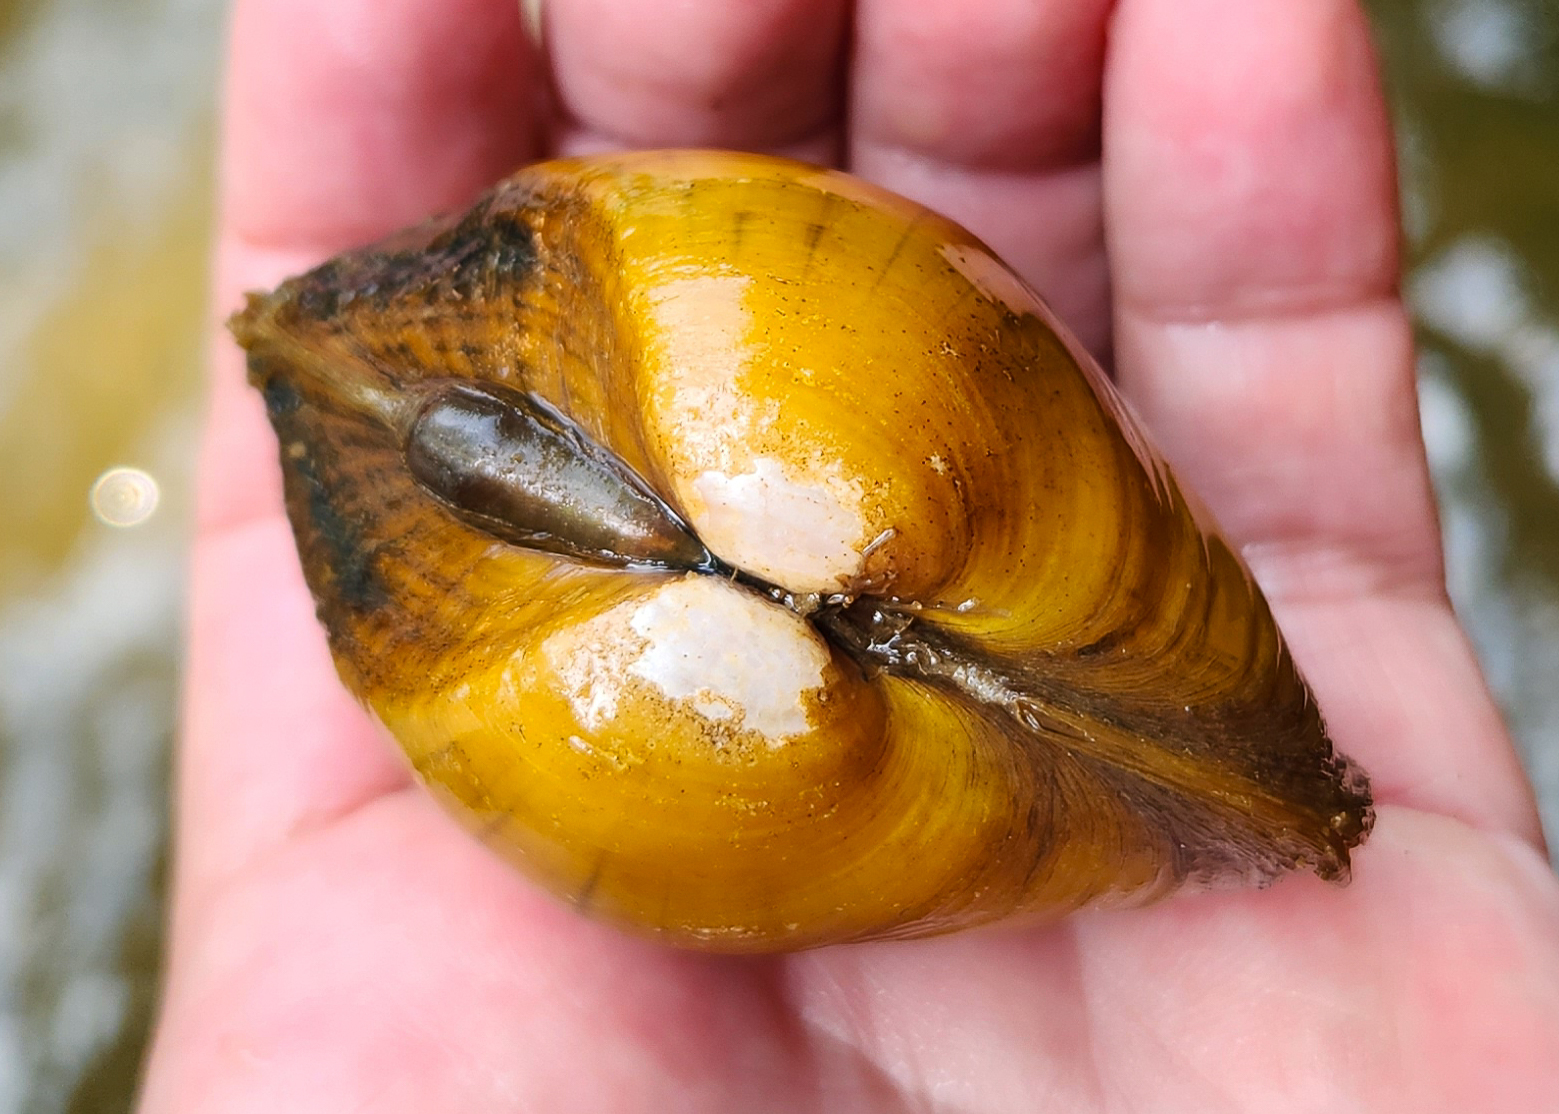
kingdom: Animalia
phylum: Mollusca
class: Bivalvia
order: Unionida
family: Unionidae
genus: Lampsilis
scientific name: Lampsilis ornata
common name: Southern pocketbook
